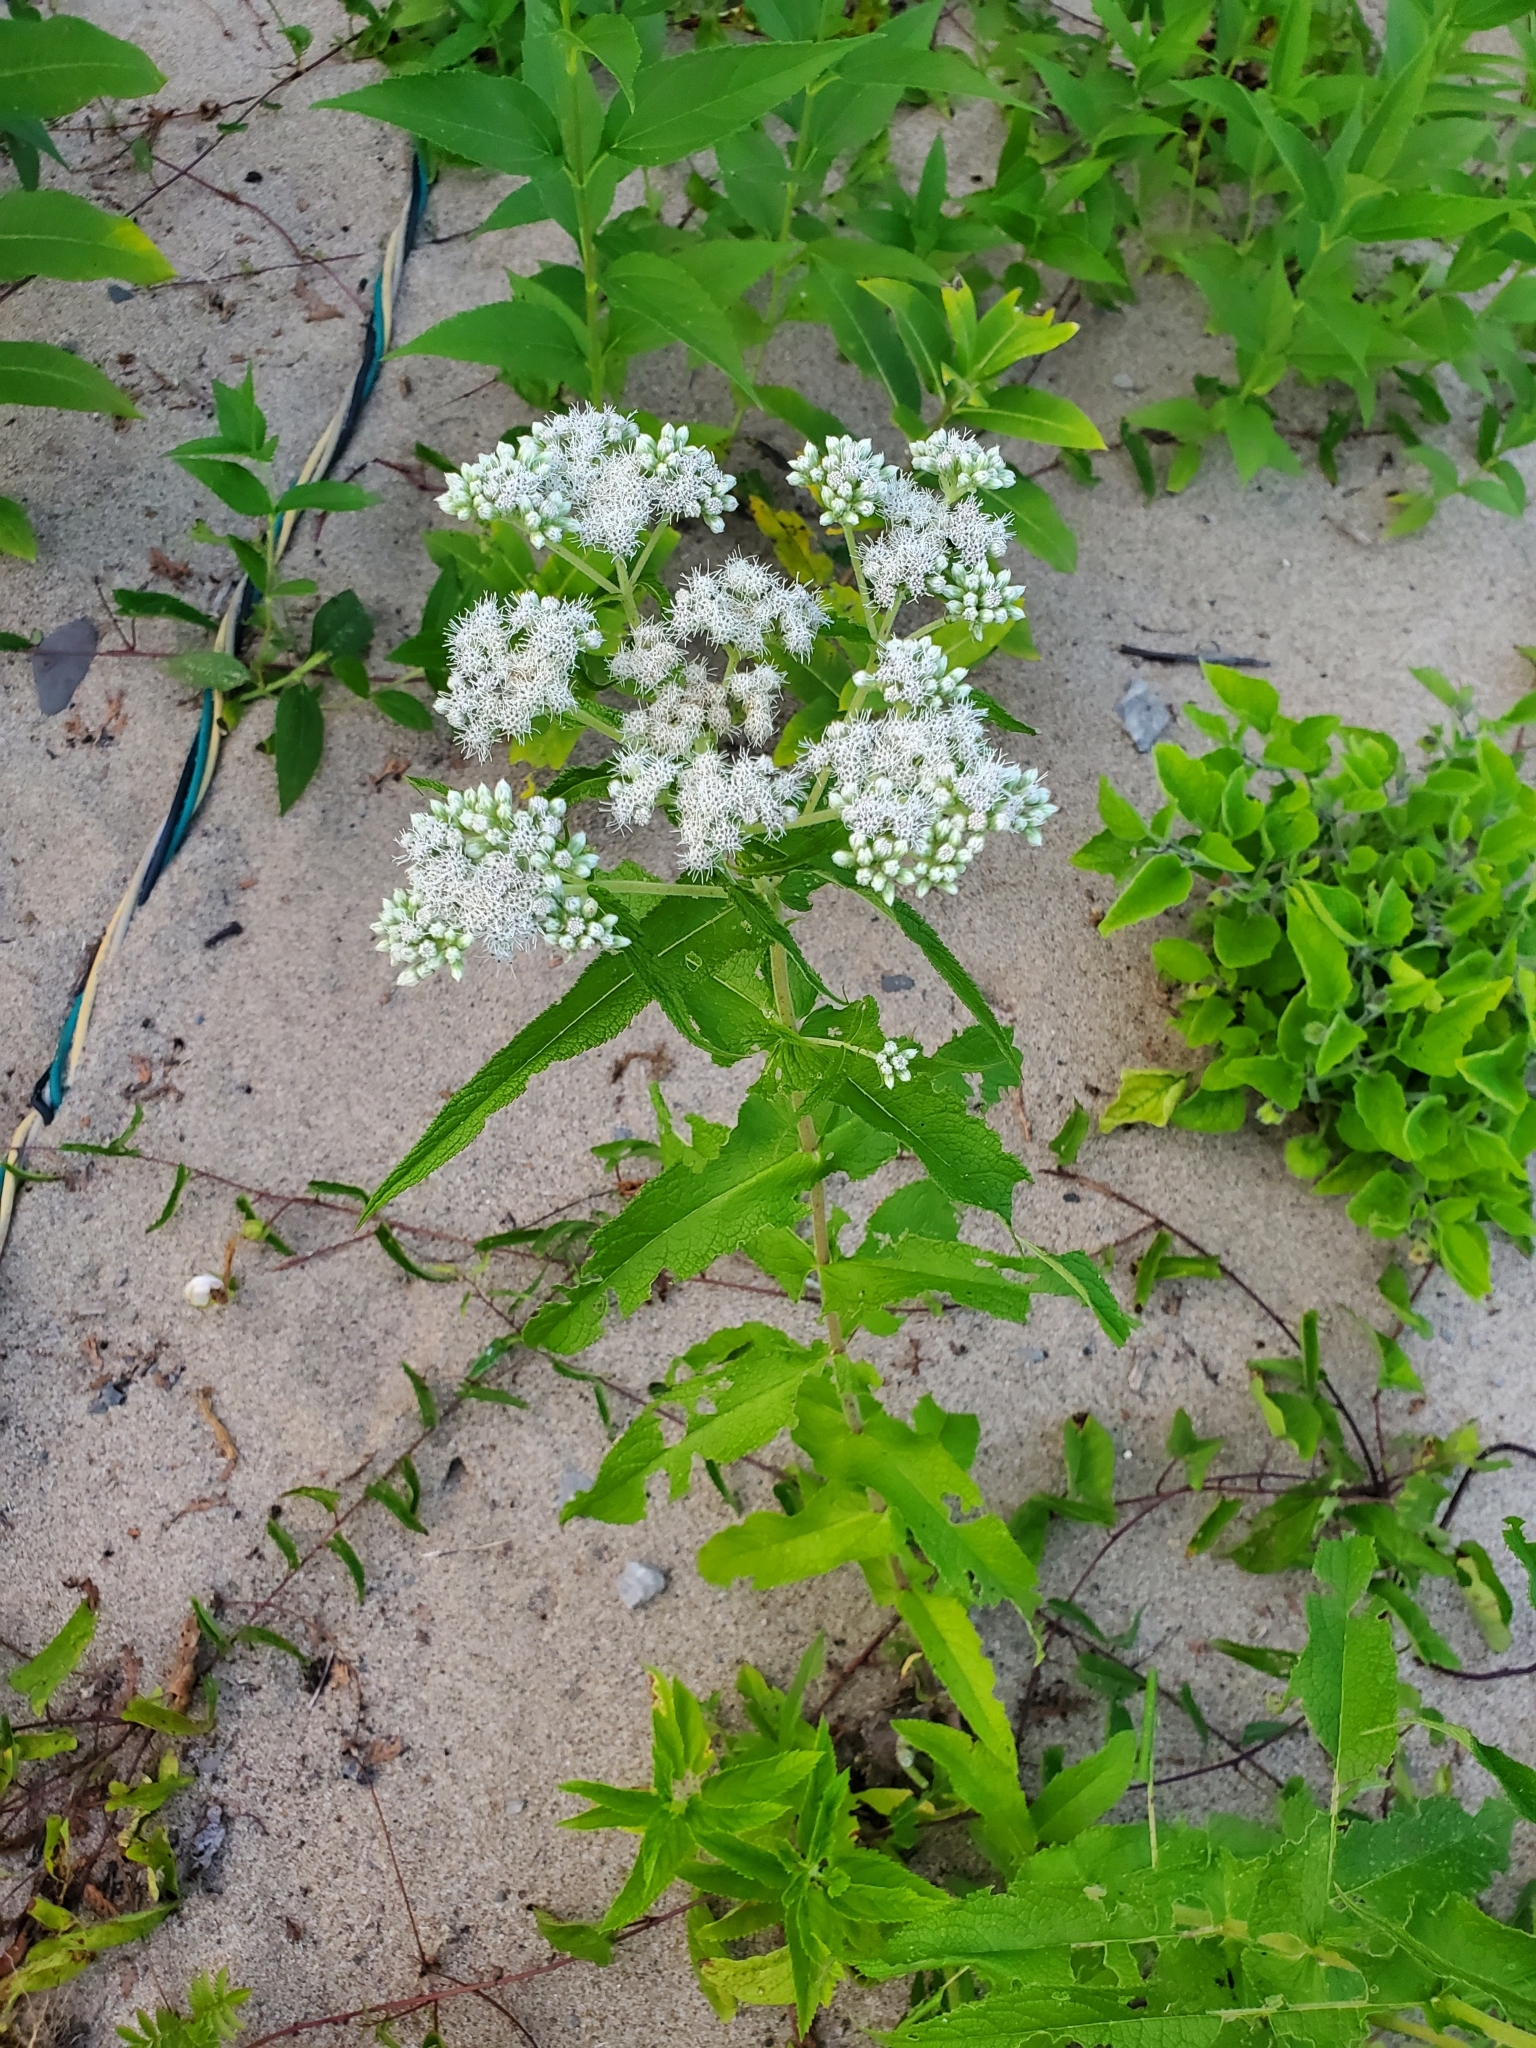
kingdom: Plantae
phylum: Tracheophyta
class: Magnoliopsida
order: Asterales
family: Asteraceae
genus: Eupatorium
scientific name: Eupatorium perfoliatum
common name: Boneset
